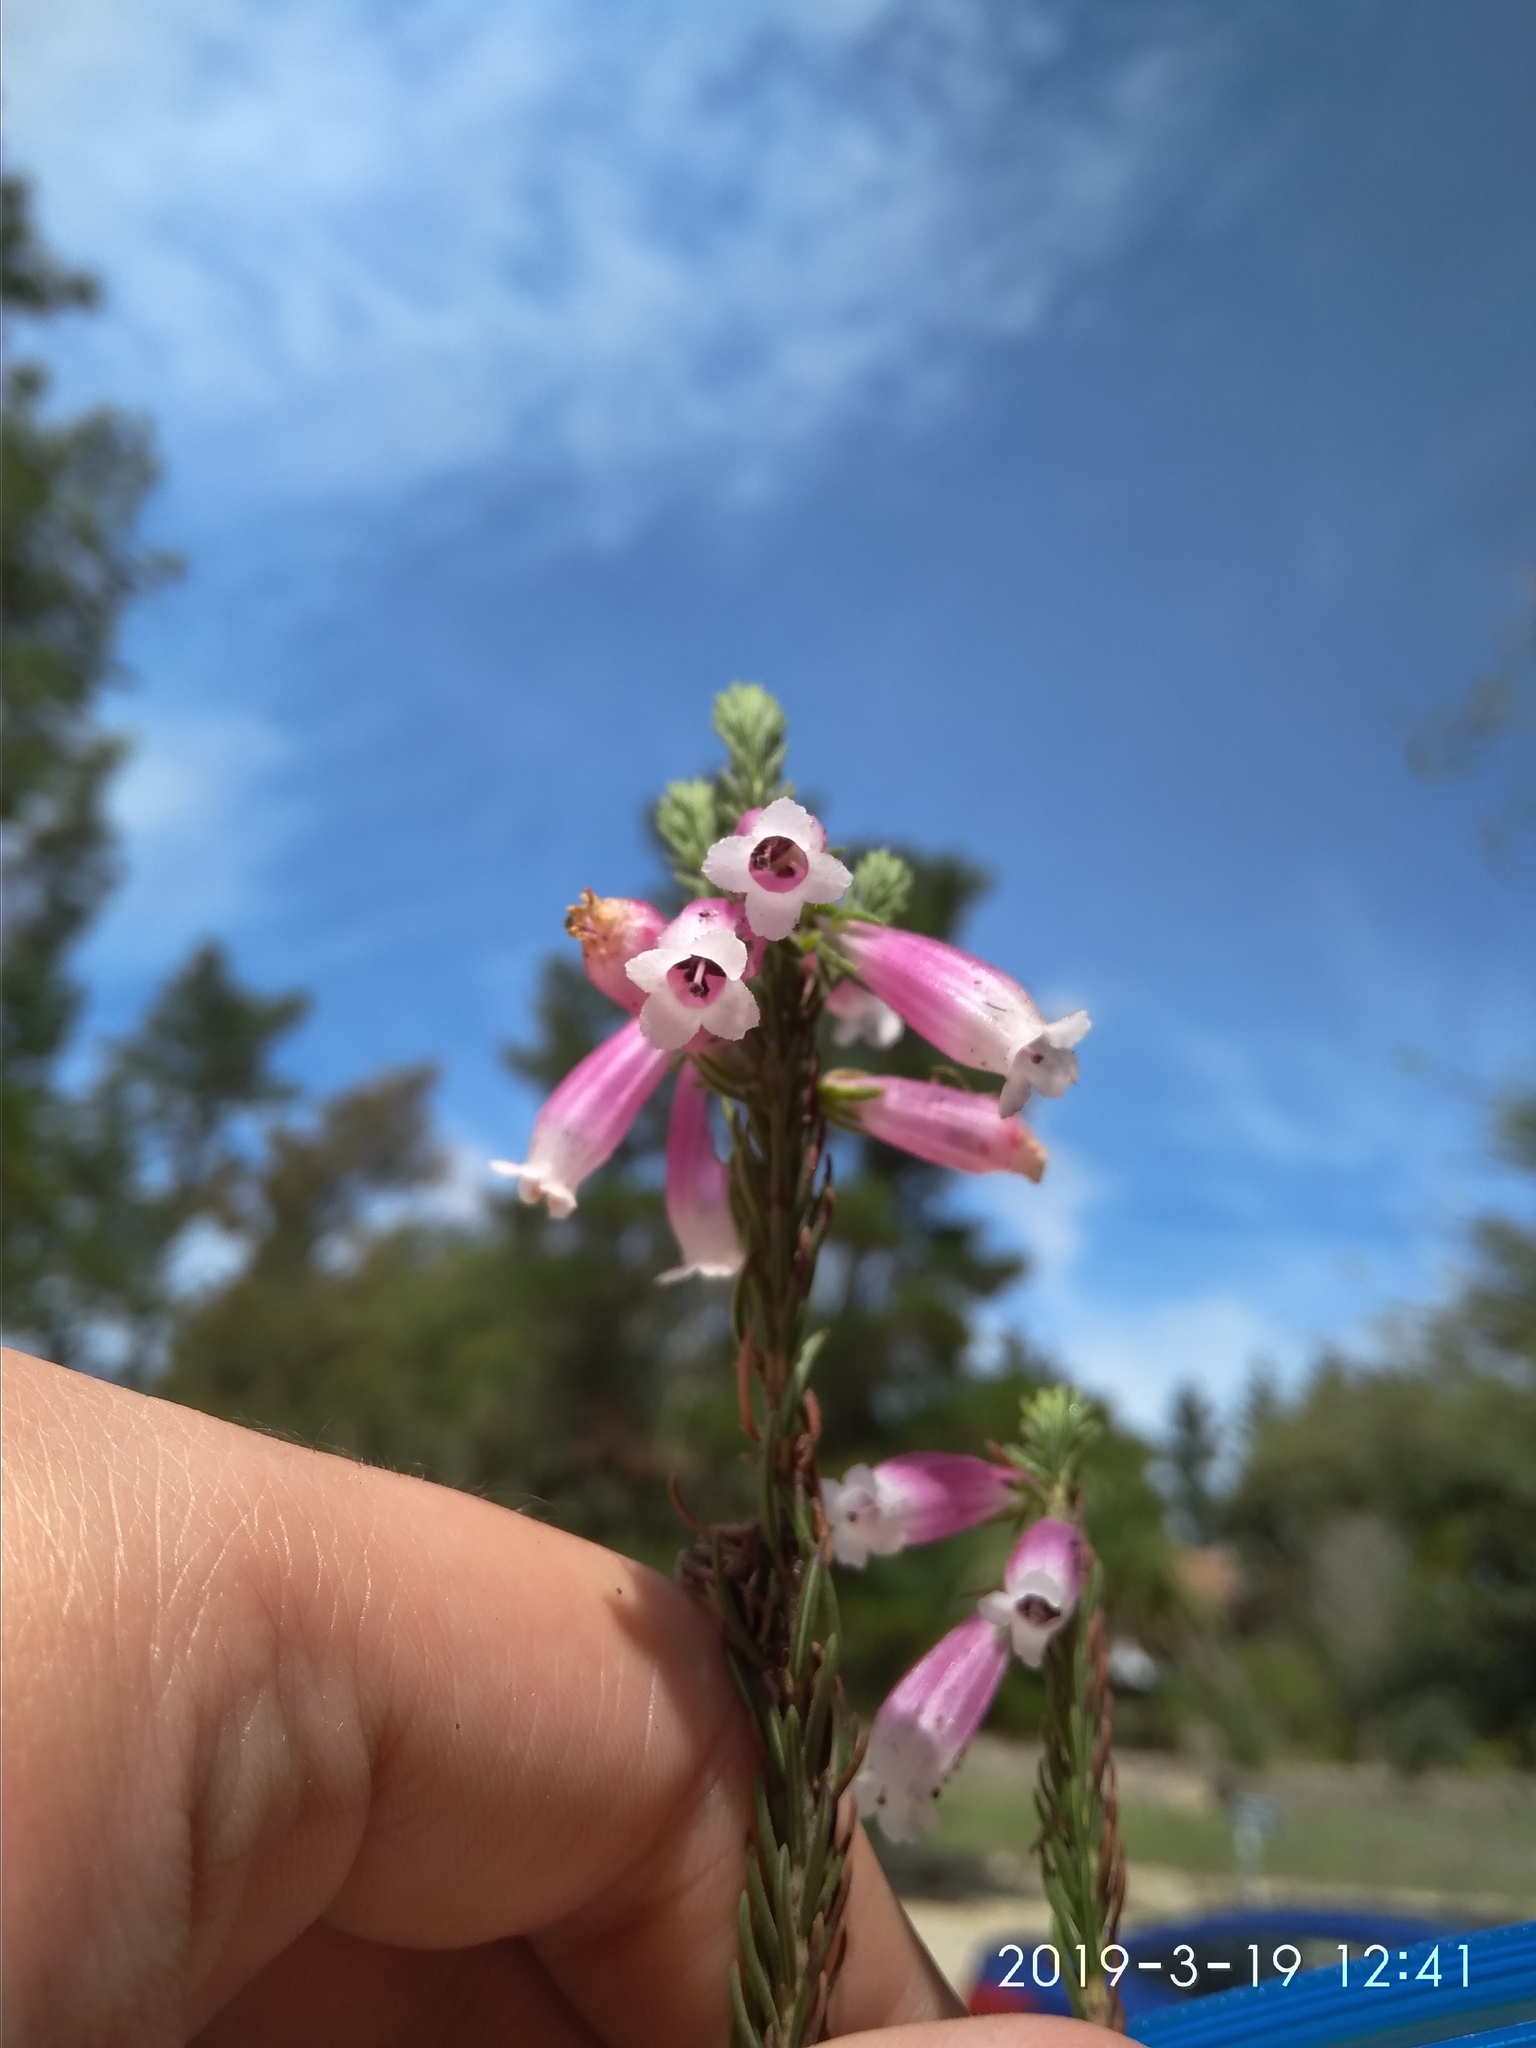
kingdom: Plantae
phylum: Tracheophyta
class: Magnoliopsida
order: Ericales
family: Ericaceae
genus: Erica
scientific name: Erica viscaria
